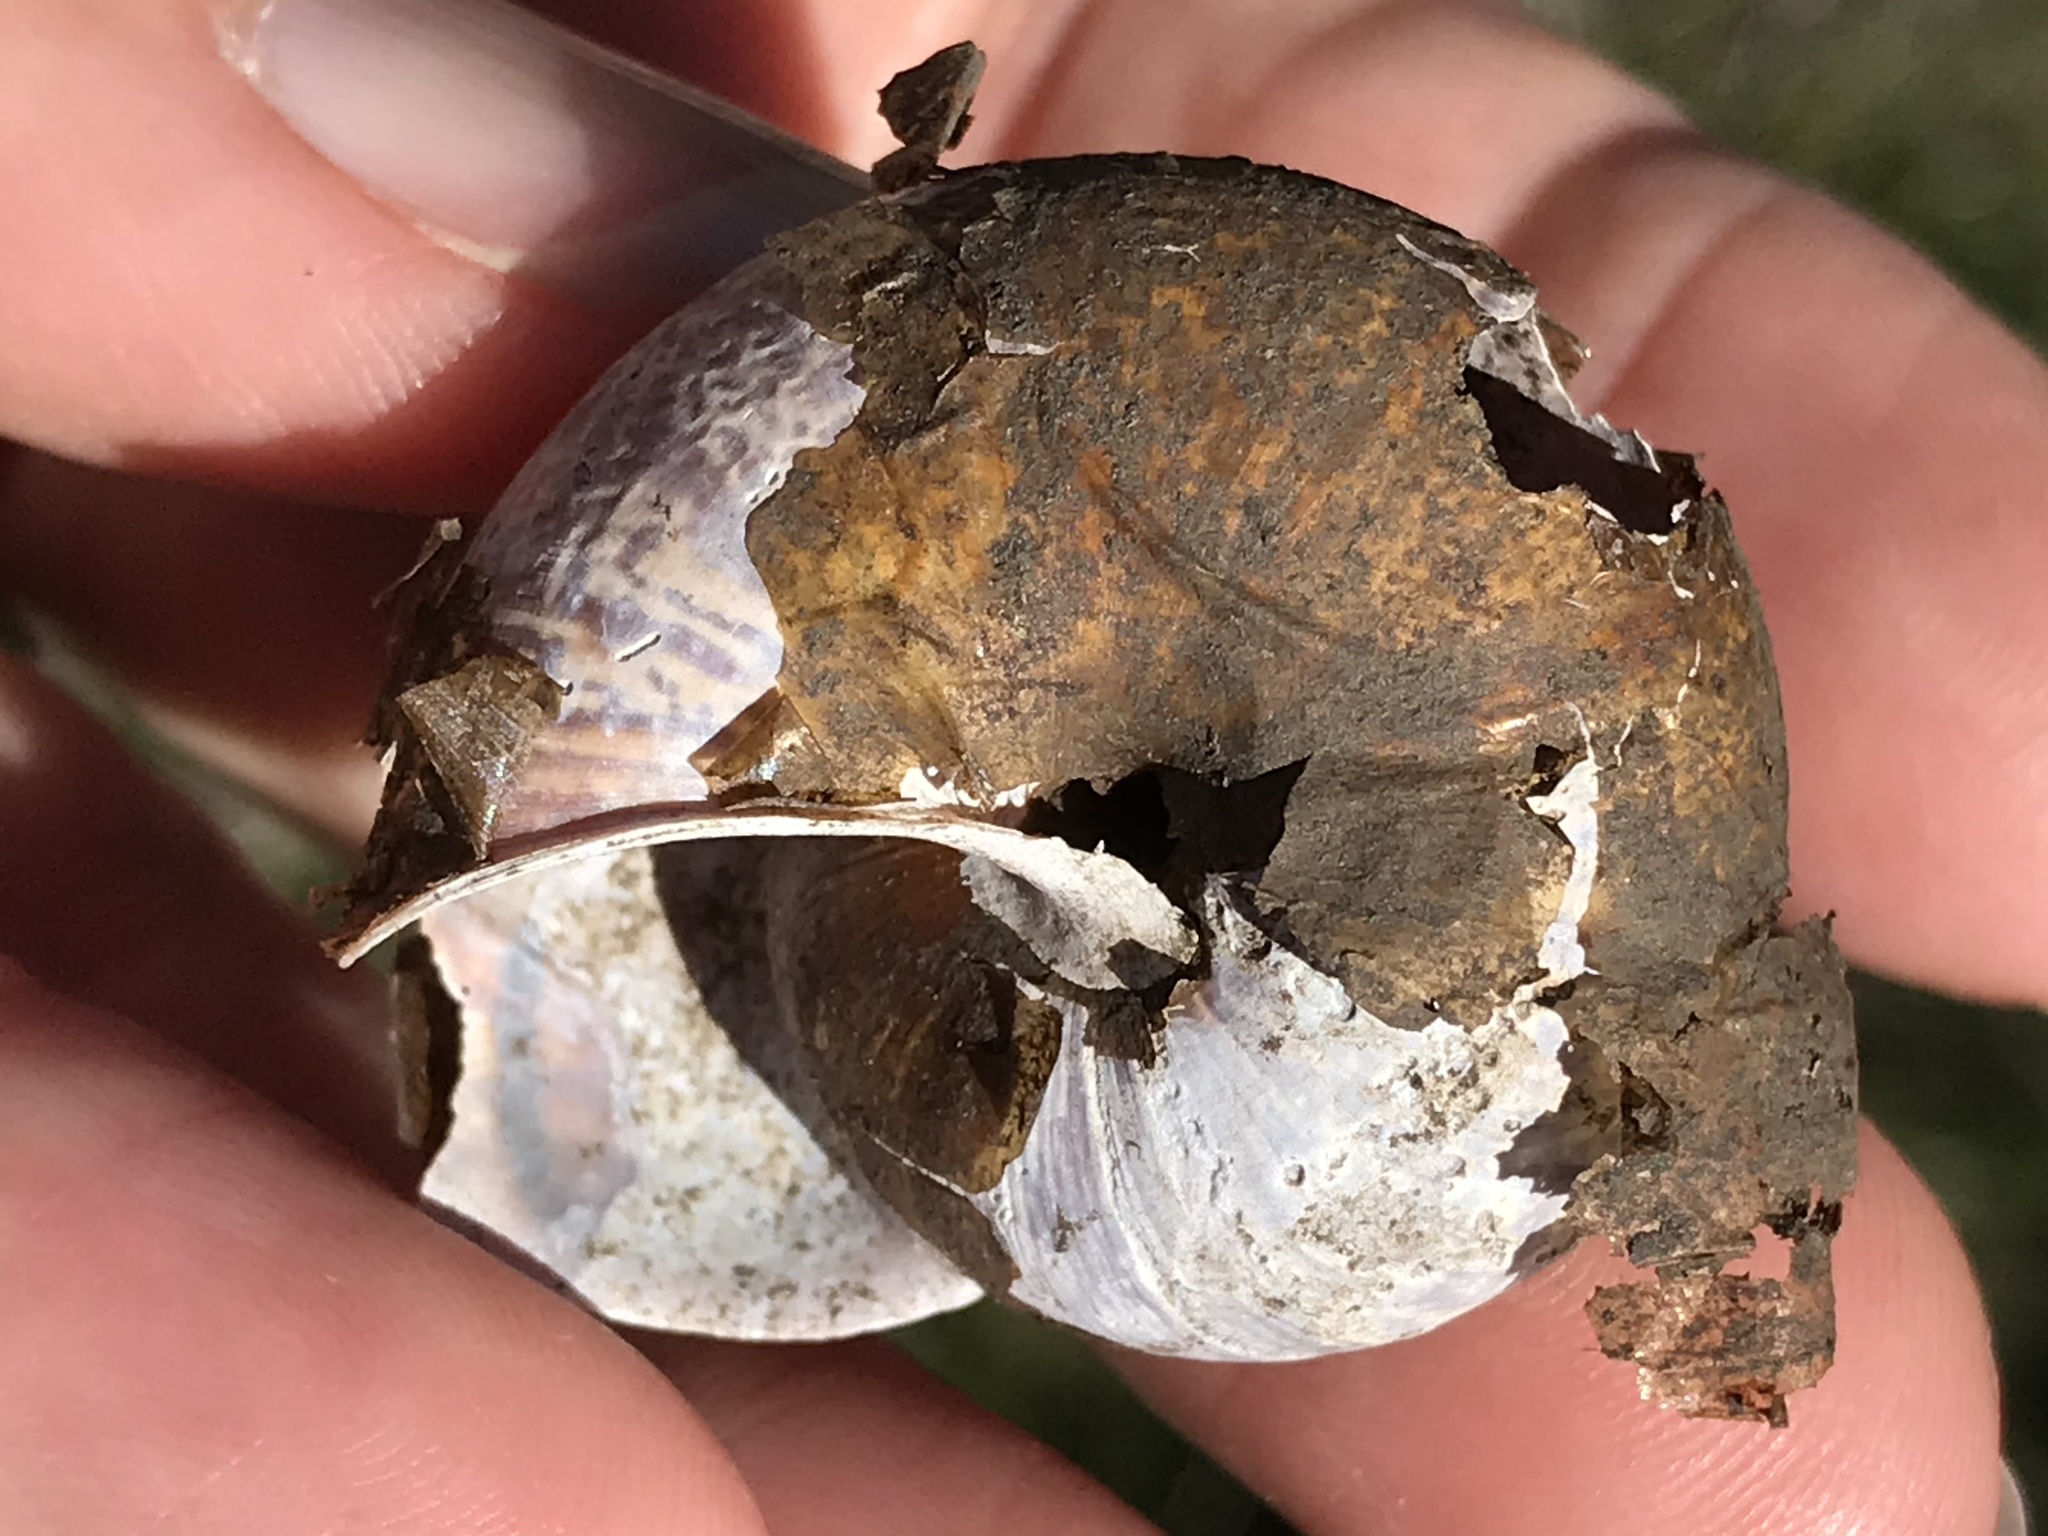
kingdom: Animalia
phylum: Mollusca
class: Gastropoda
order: Stylommatophora
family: Xanthonychidae
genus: Helminthoglypta
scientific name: Helminthoglypta arrosa
